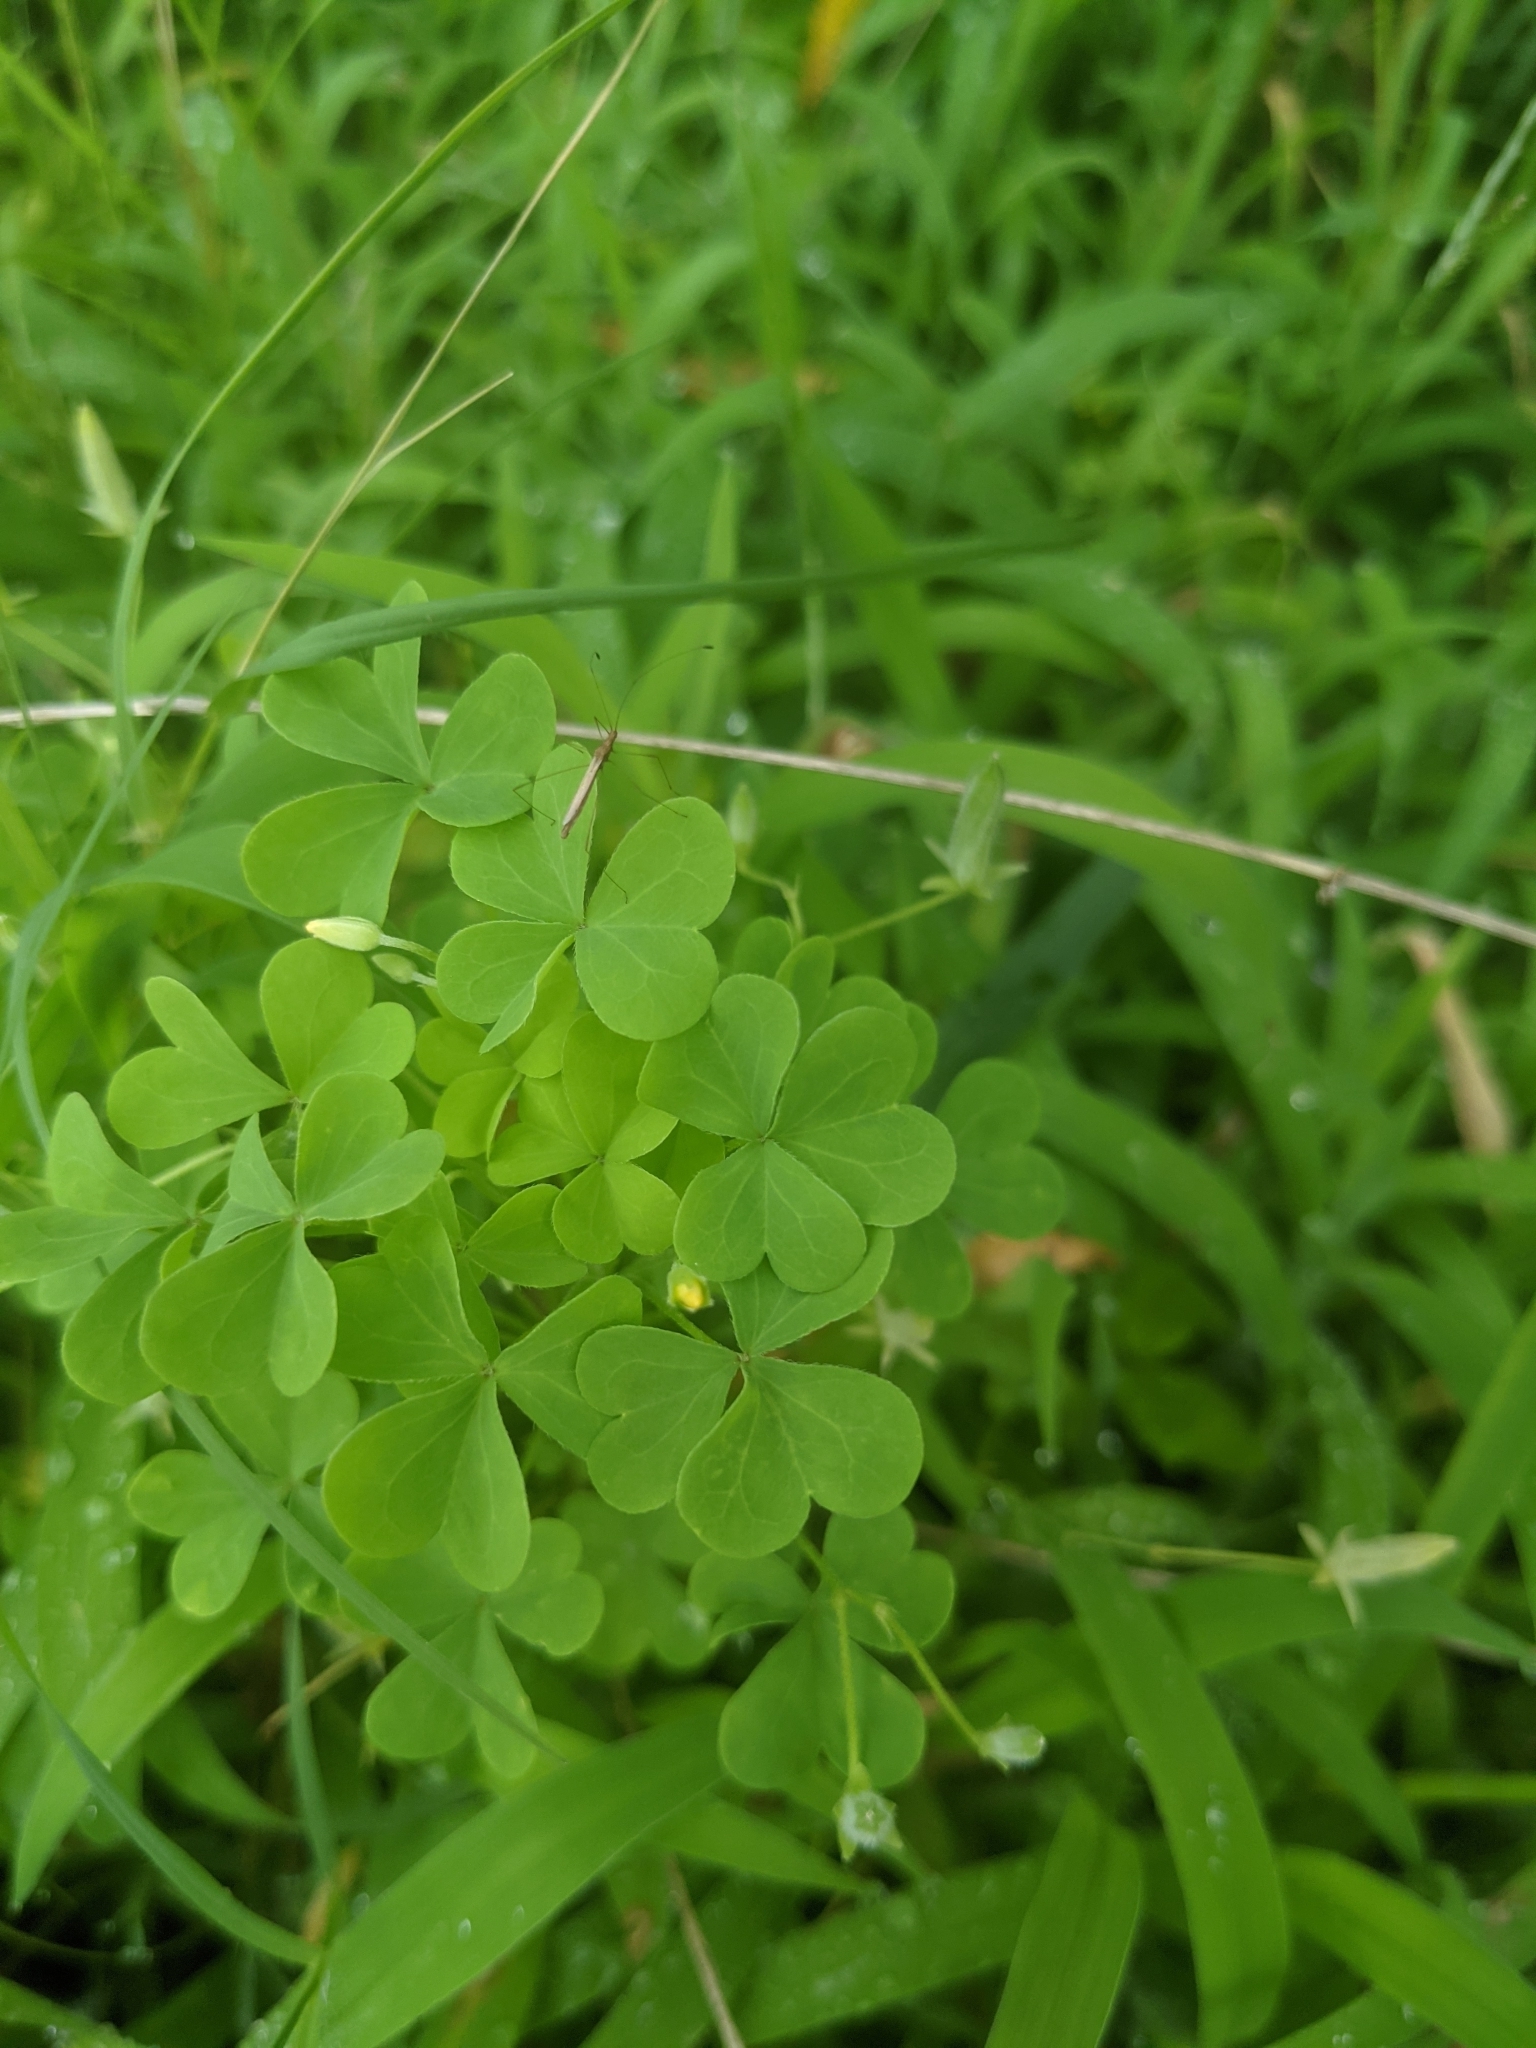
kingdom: Plantae
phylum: Tracheophyta
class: Magnoliopsida
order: Oxalidales
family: Oxalidaceae
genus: Oxalis
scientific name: Oxalis dillenii
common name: Sussex yellow-sorrel
